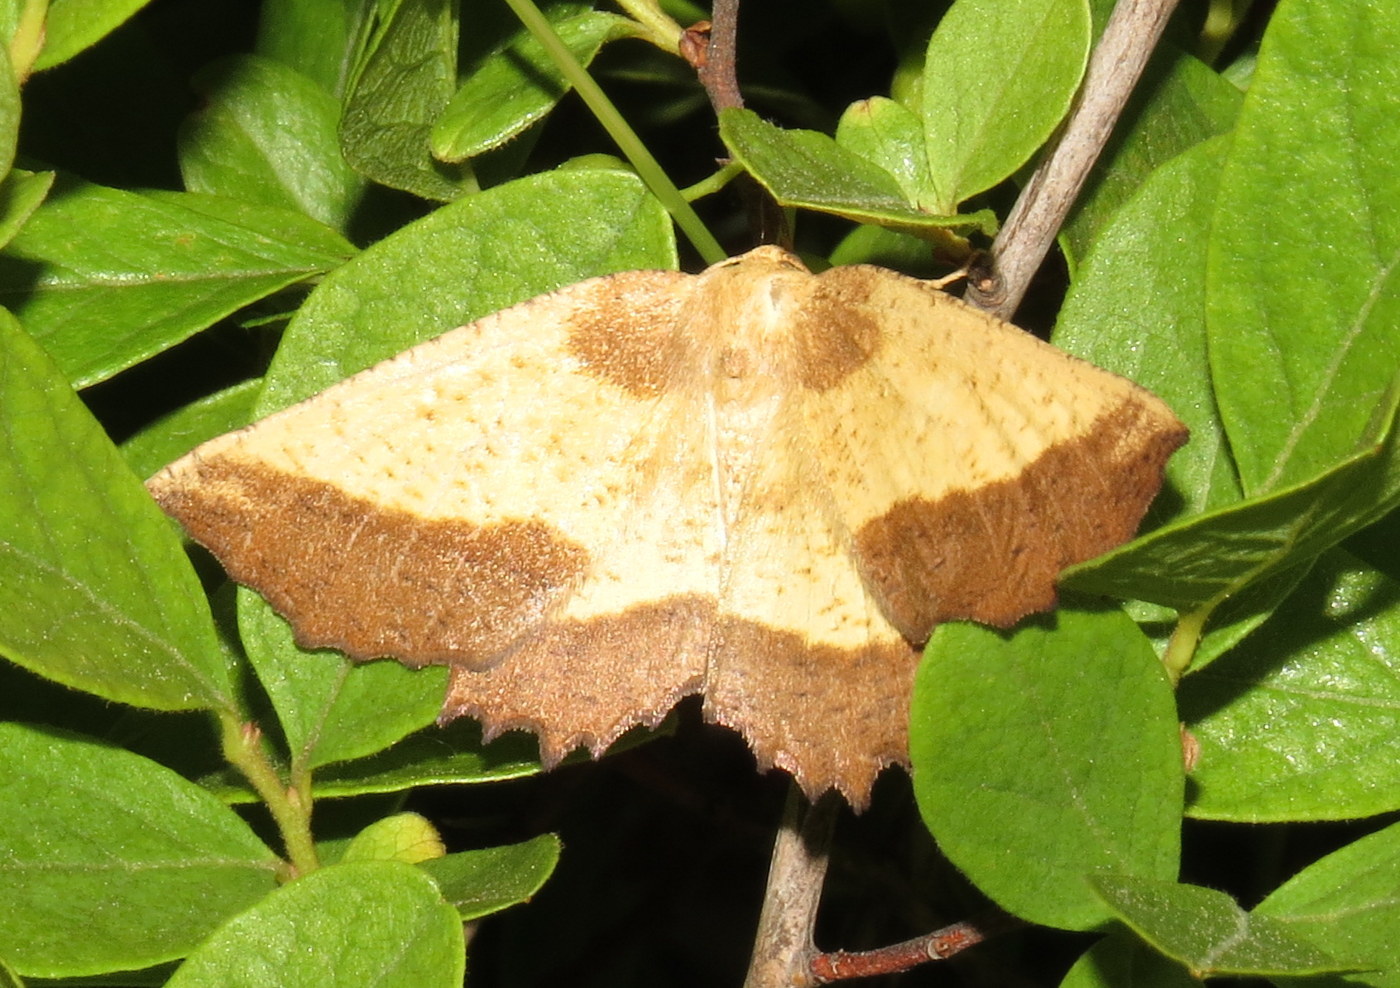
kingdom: Animalia
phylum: Arthropoda
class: Insecta
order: Lepidoptera
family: Geometridae
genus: Euchlaena
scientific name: Euchlaena serrata
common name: Saw wing
